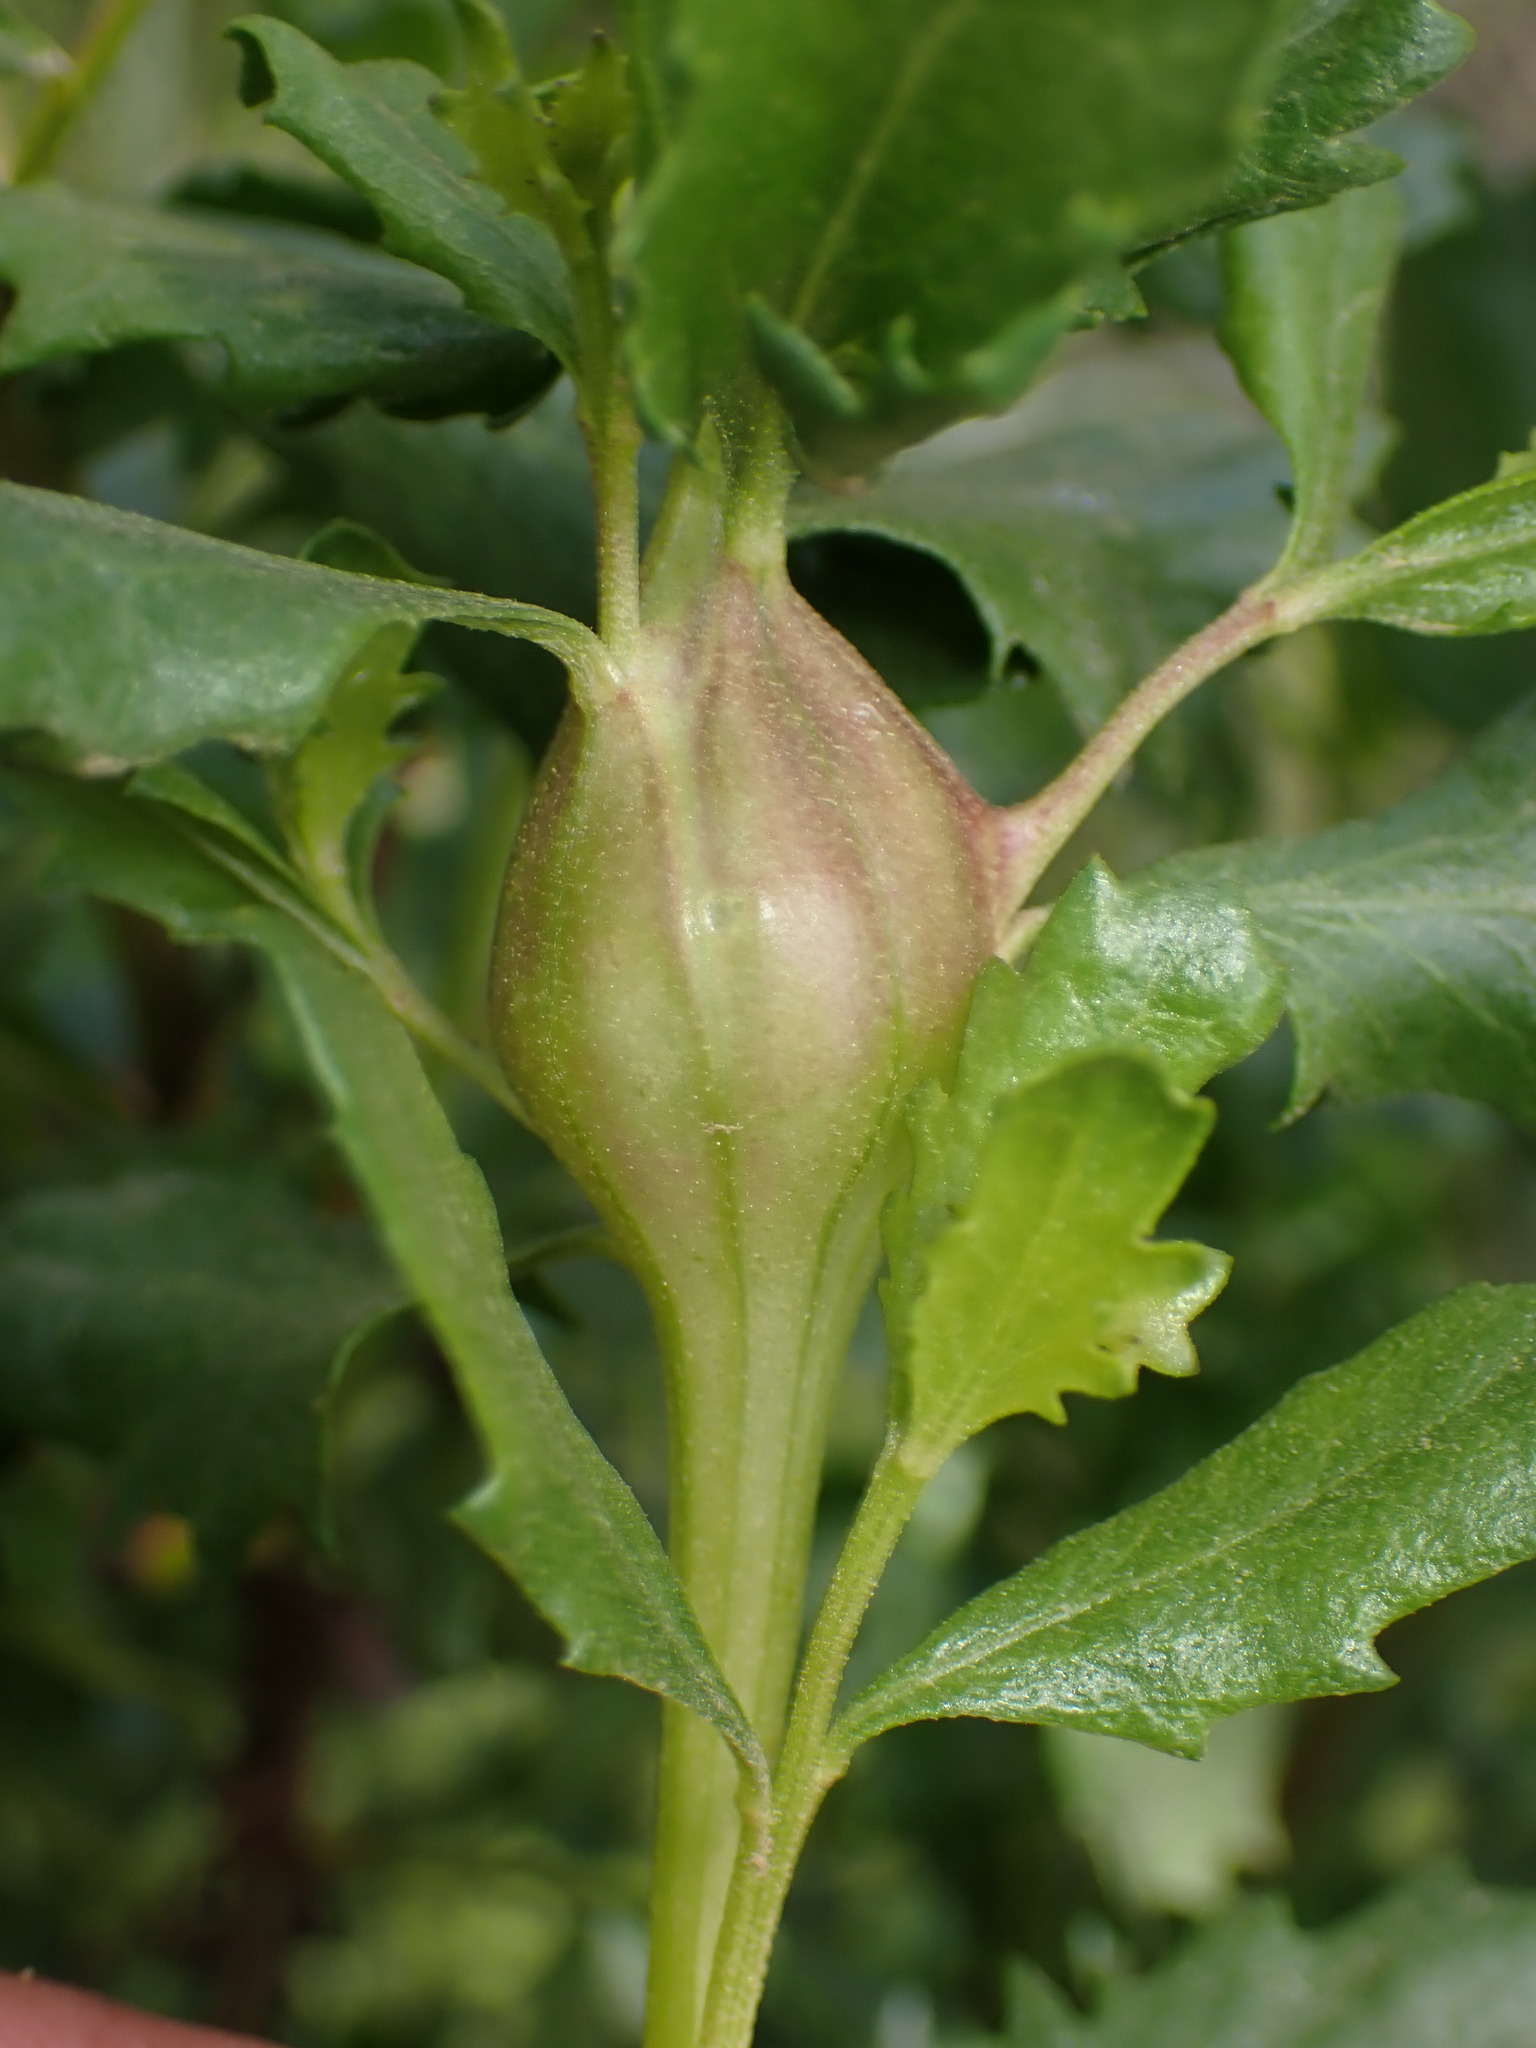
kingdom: Animalia
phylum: Arthropoda
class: Insecta
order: Lepidoptera
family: Gelechiidae
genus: Gnorimoschema
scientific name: Gnorimoschema baccharisella
